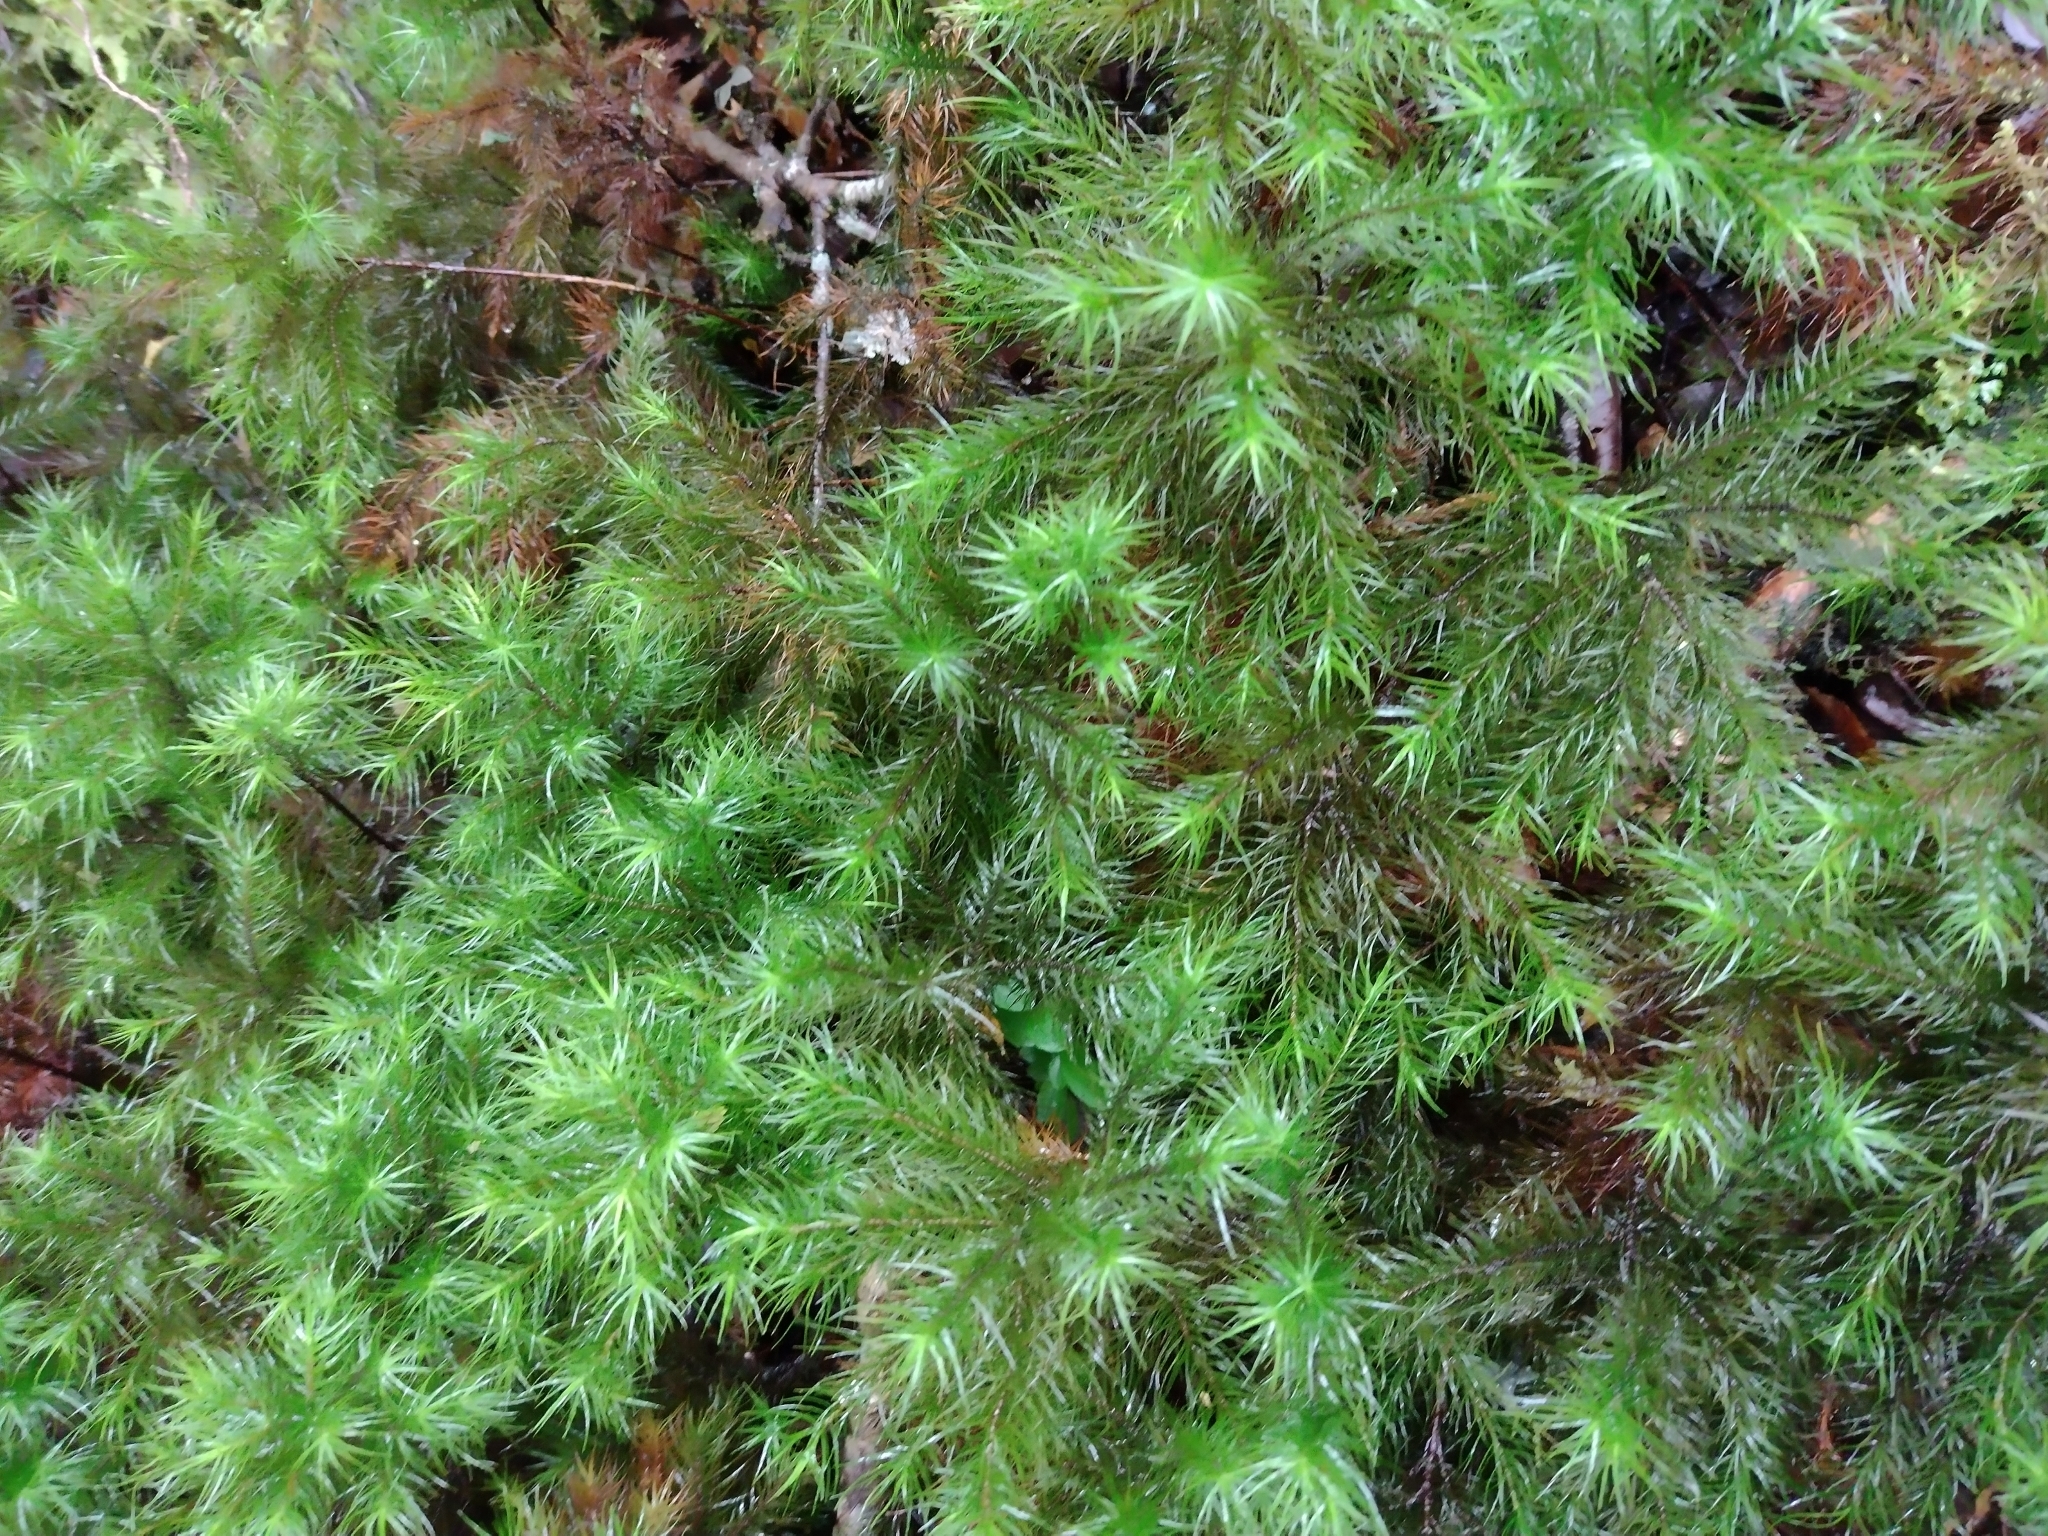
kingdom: Plantae
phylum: Bryophyta
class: Polytrichopsida
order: Polytrichales
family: Polytrichaceae
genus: Dendroligotrichum
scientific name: Dendroligotrichum dendroides
